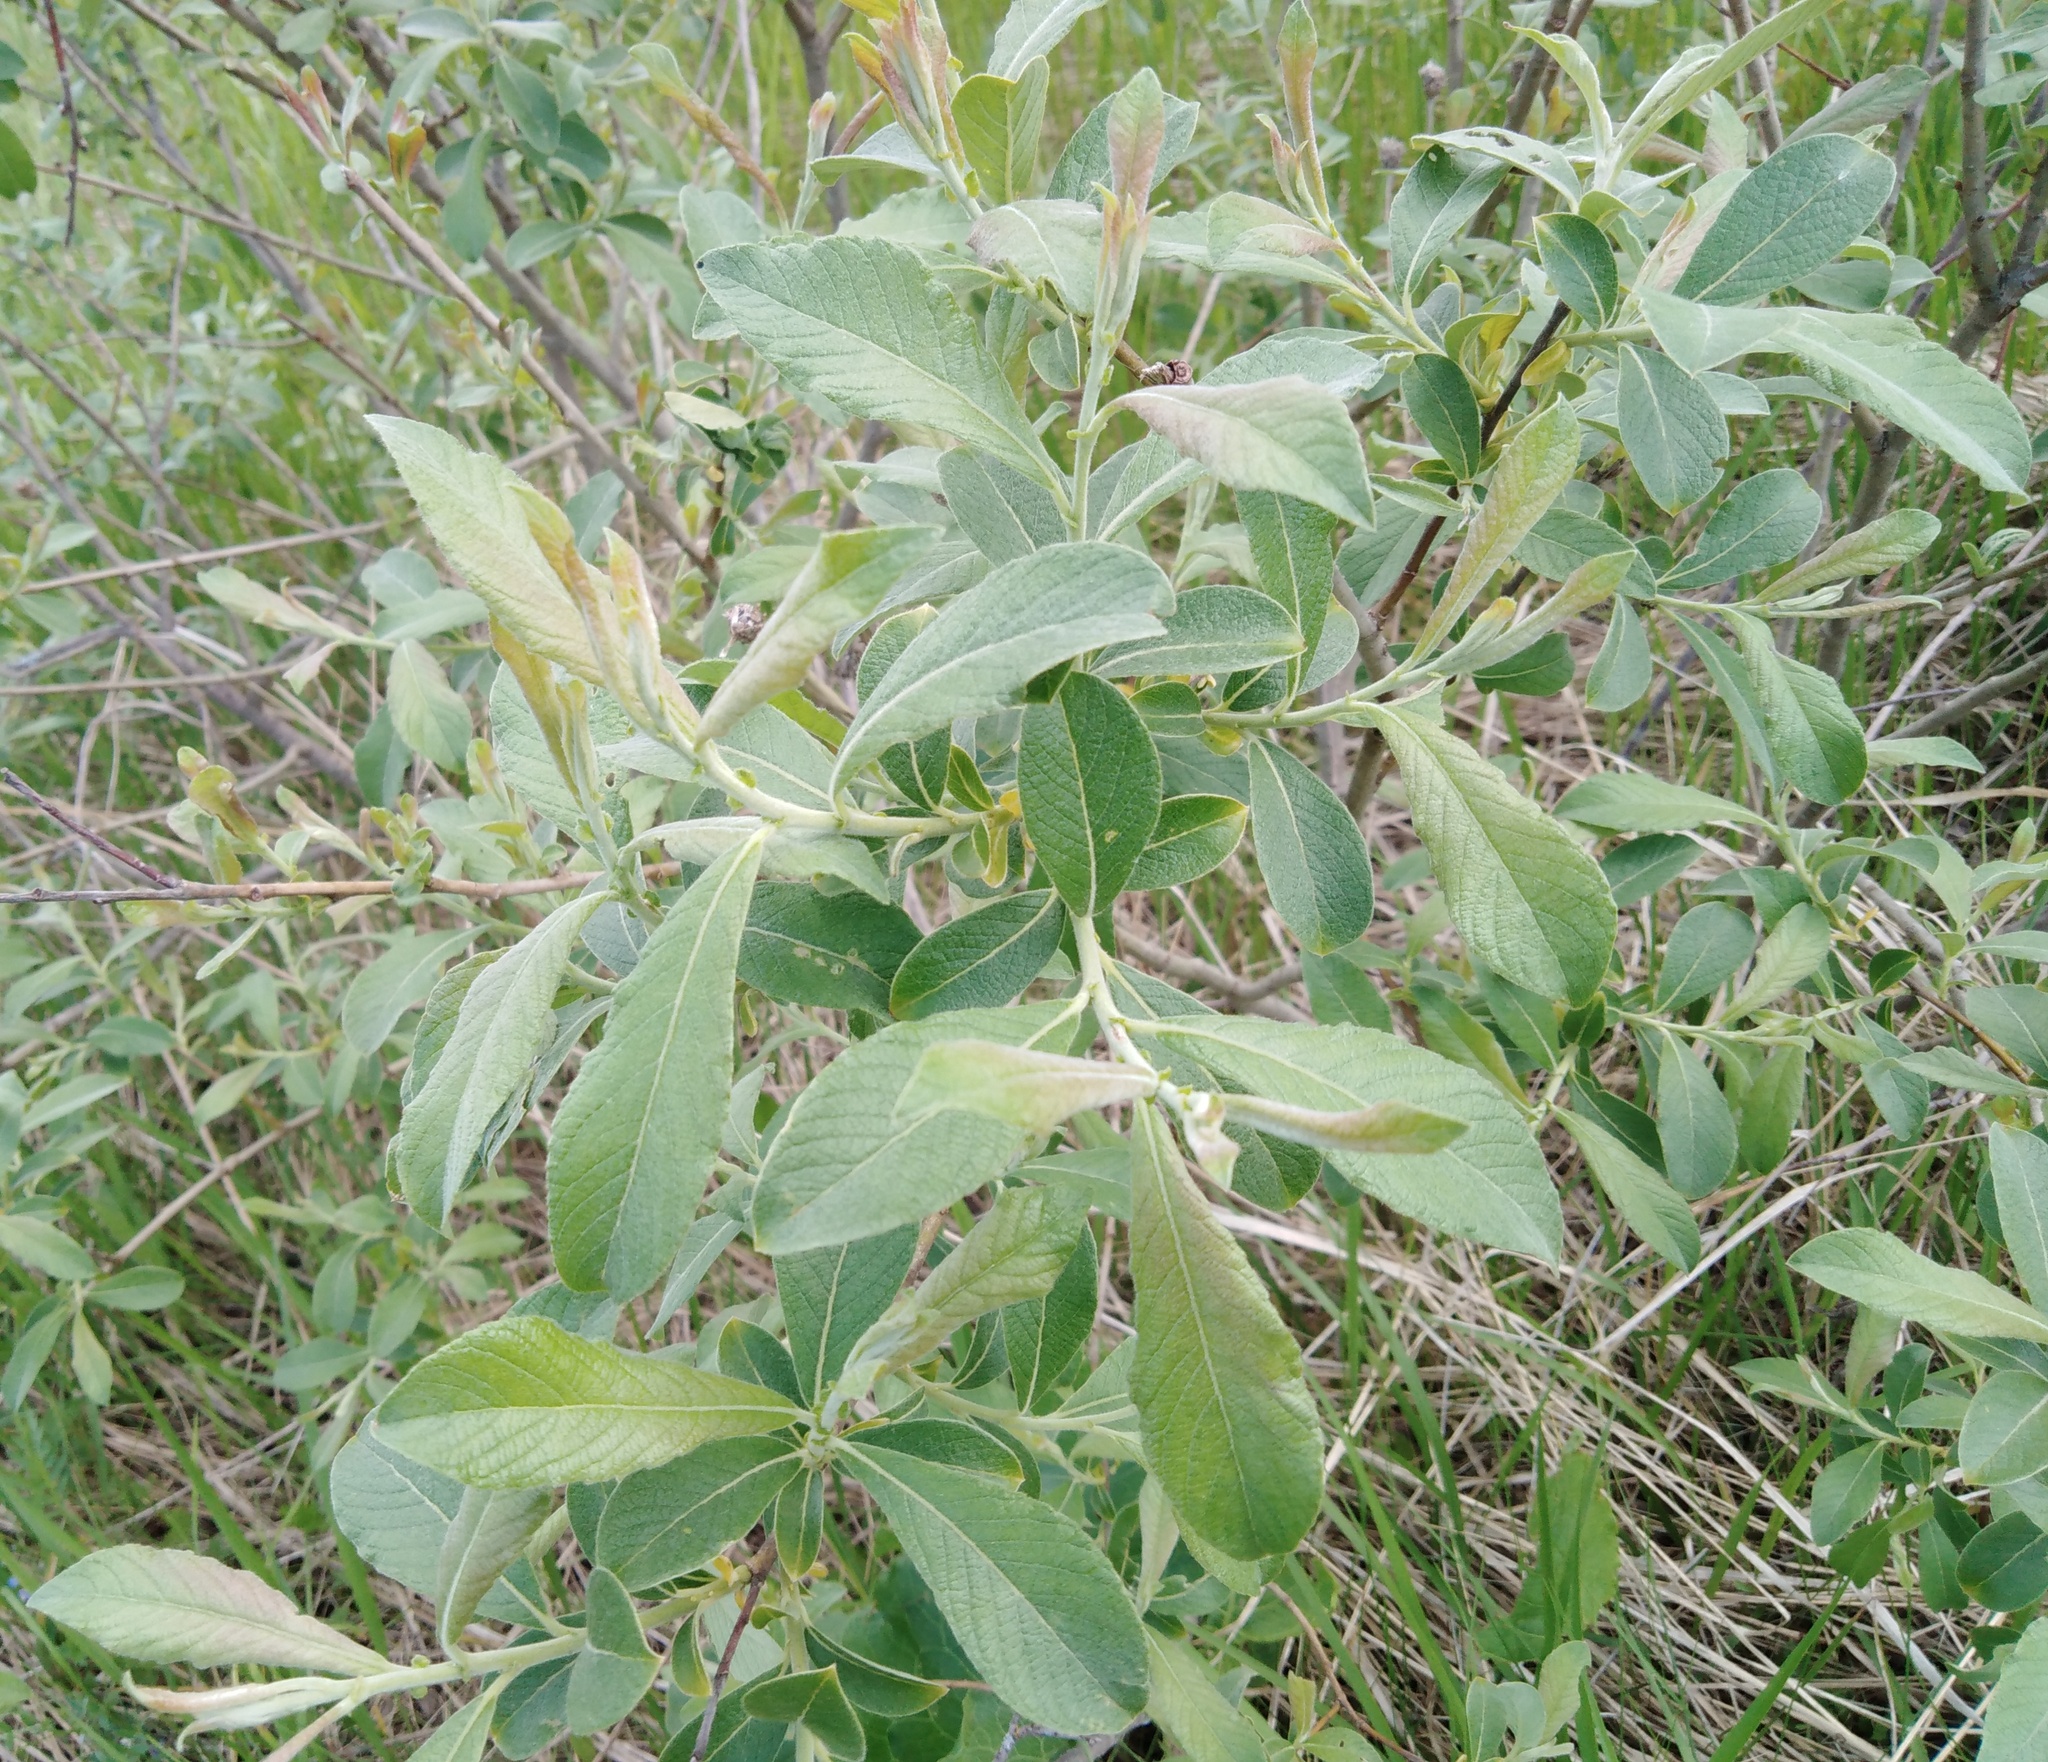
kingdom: Plantae
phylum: Tracheophyta
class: Magnoliopsida
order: Malpighiales
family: Salicaceae
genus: Salix
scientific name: Salix cinerea
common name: Common sallow
